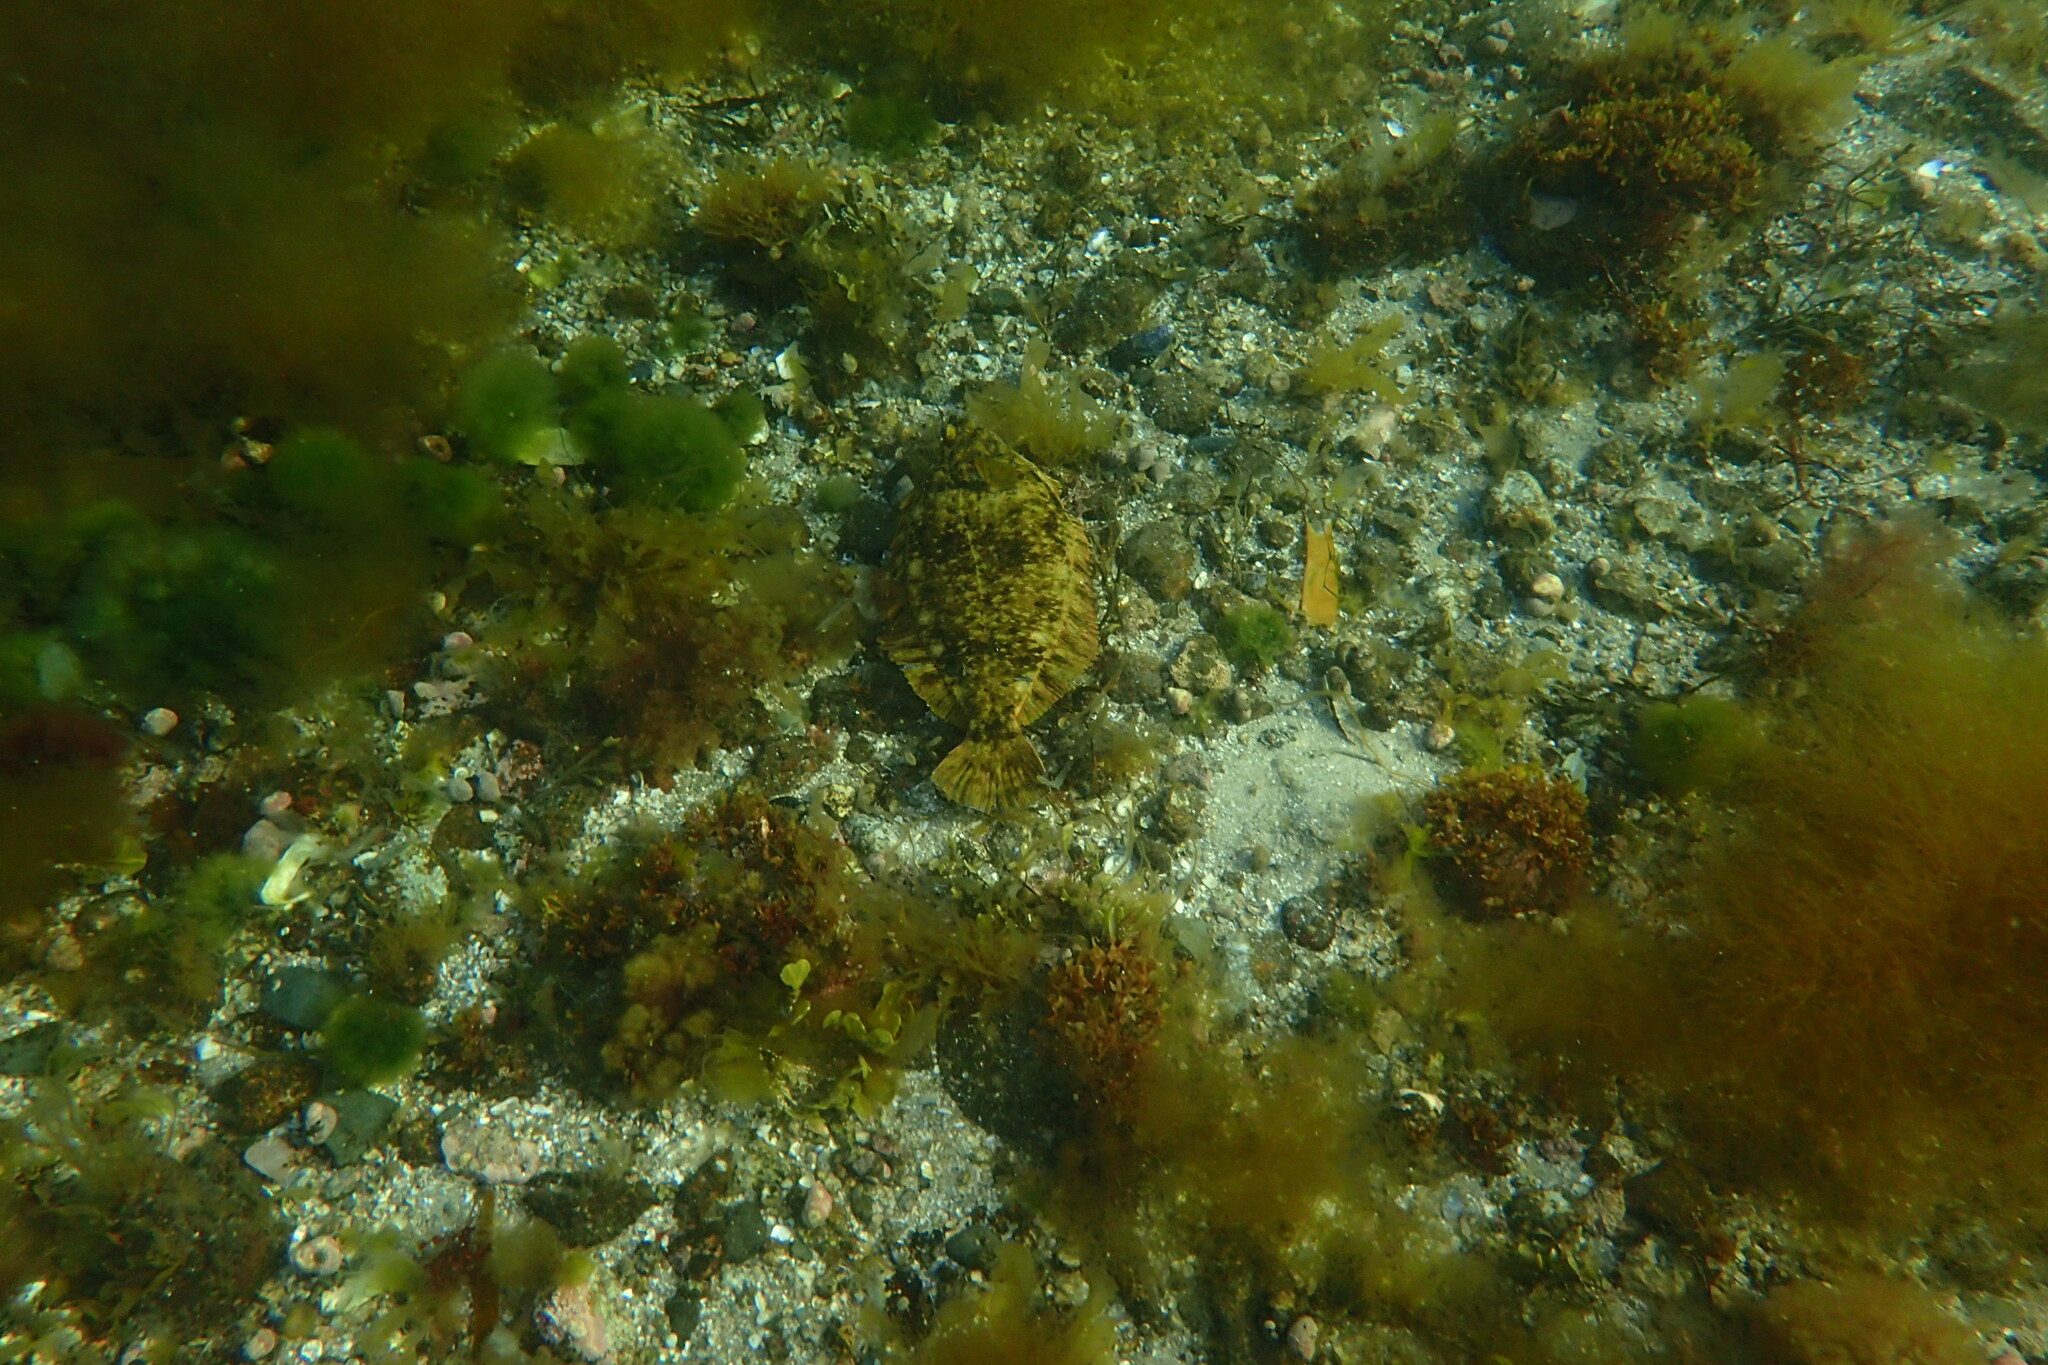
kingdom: Animalia
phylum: Chordata
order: Pleuronectiformes
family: Pleuronectidae
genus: Pseudopleuronectes
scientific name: Pseudopleuronectes americanus
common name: Black backs
